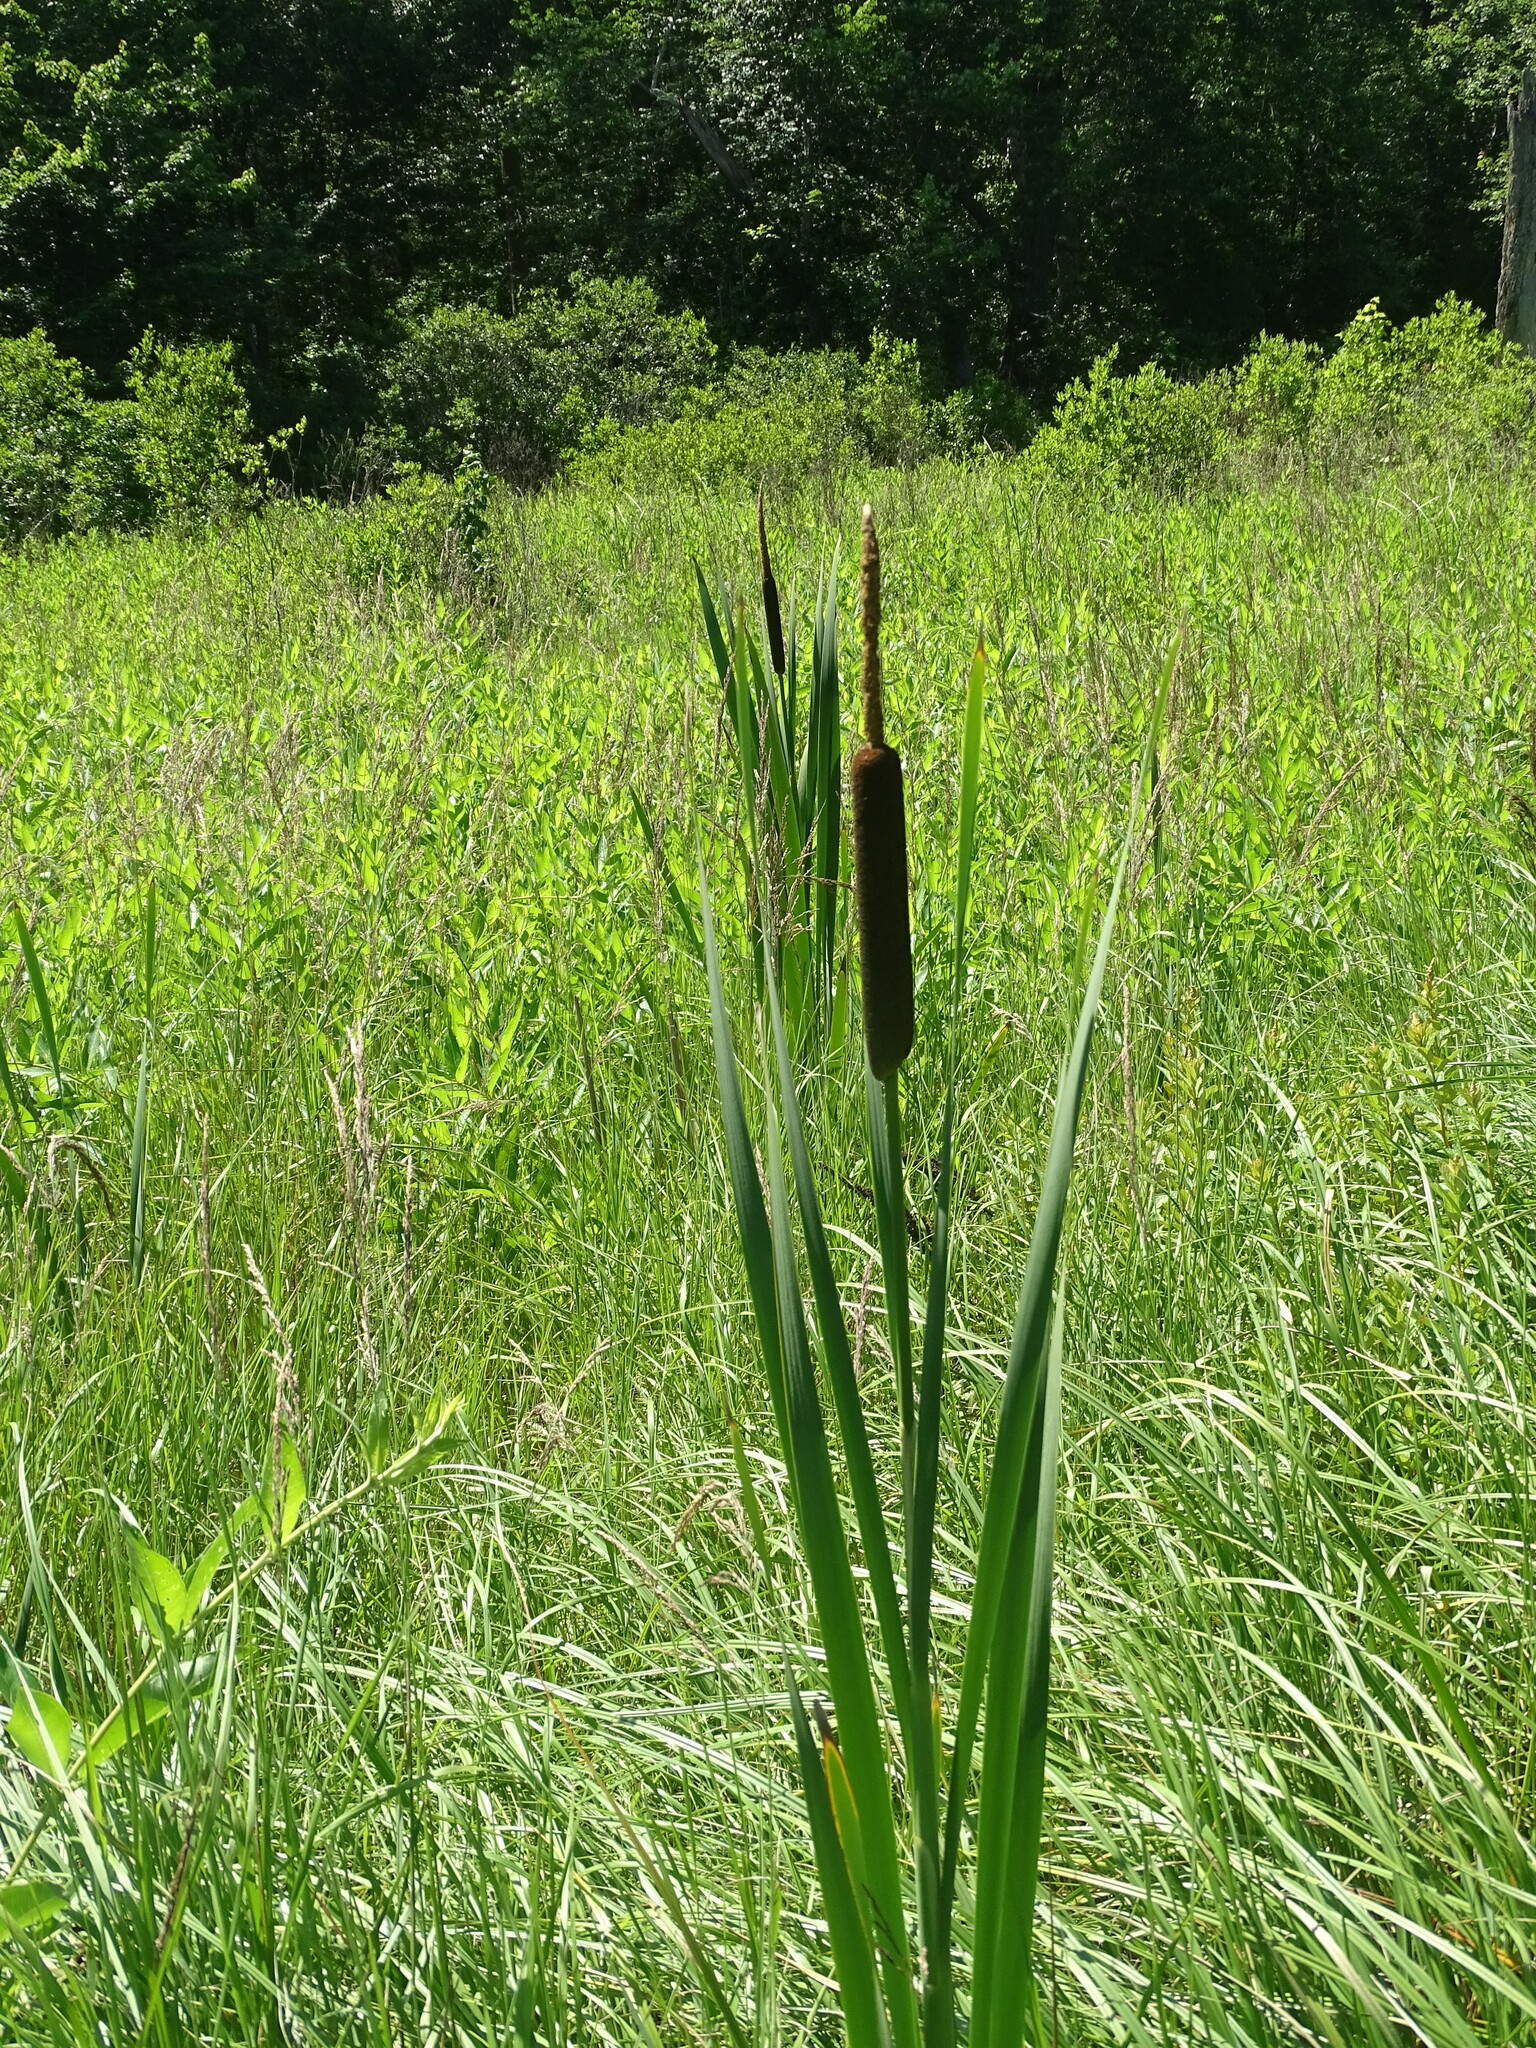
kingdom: Plantae
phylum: Tracheophyta
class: Liliopsida
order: Poales
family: Typhaceae
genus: Typha
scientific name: Typha latifolia
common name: Broadleaf cattail
